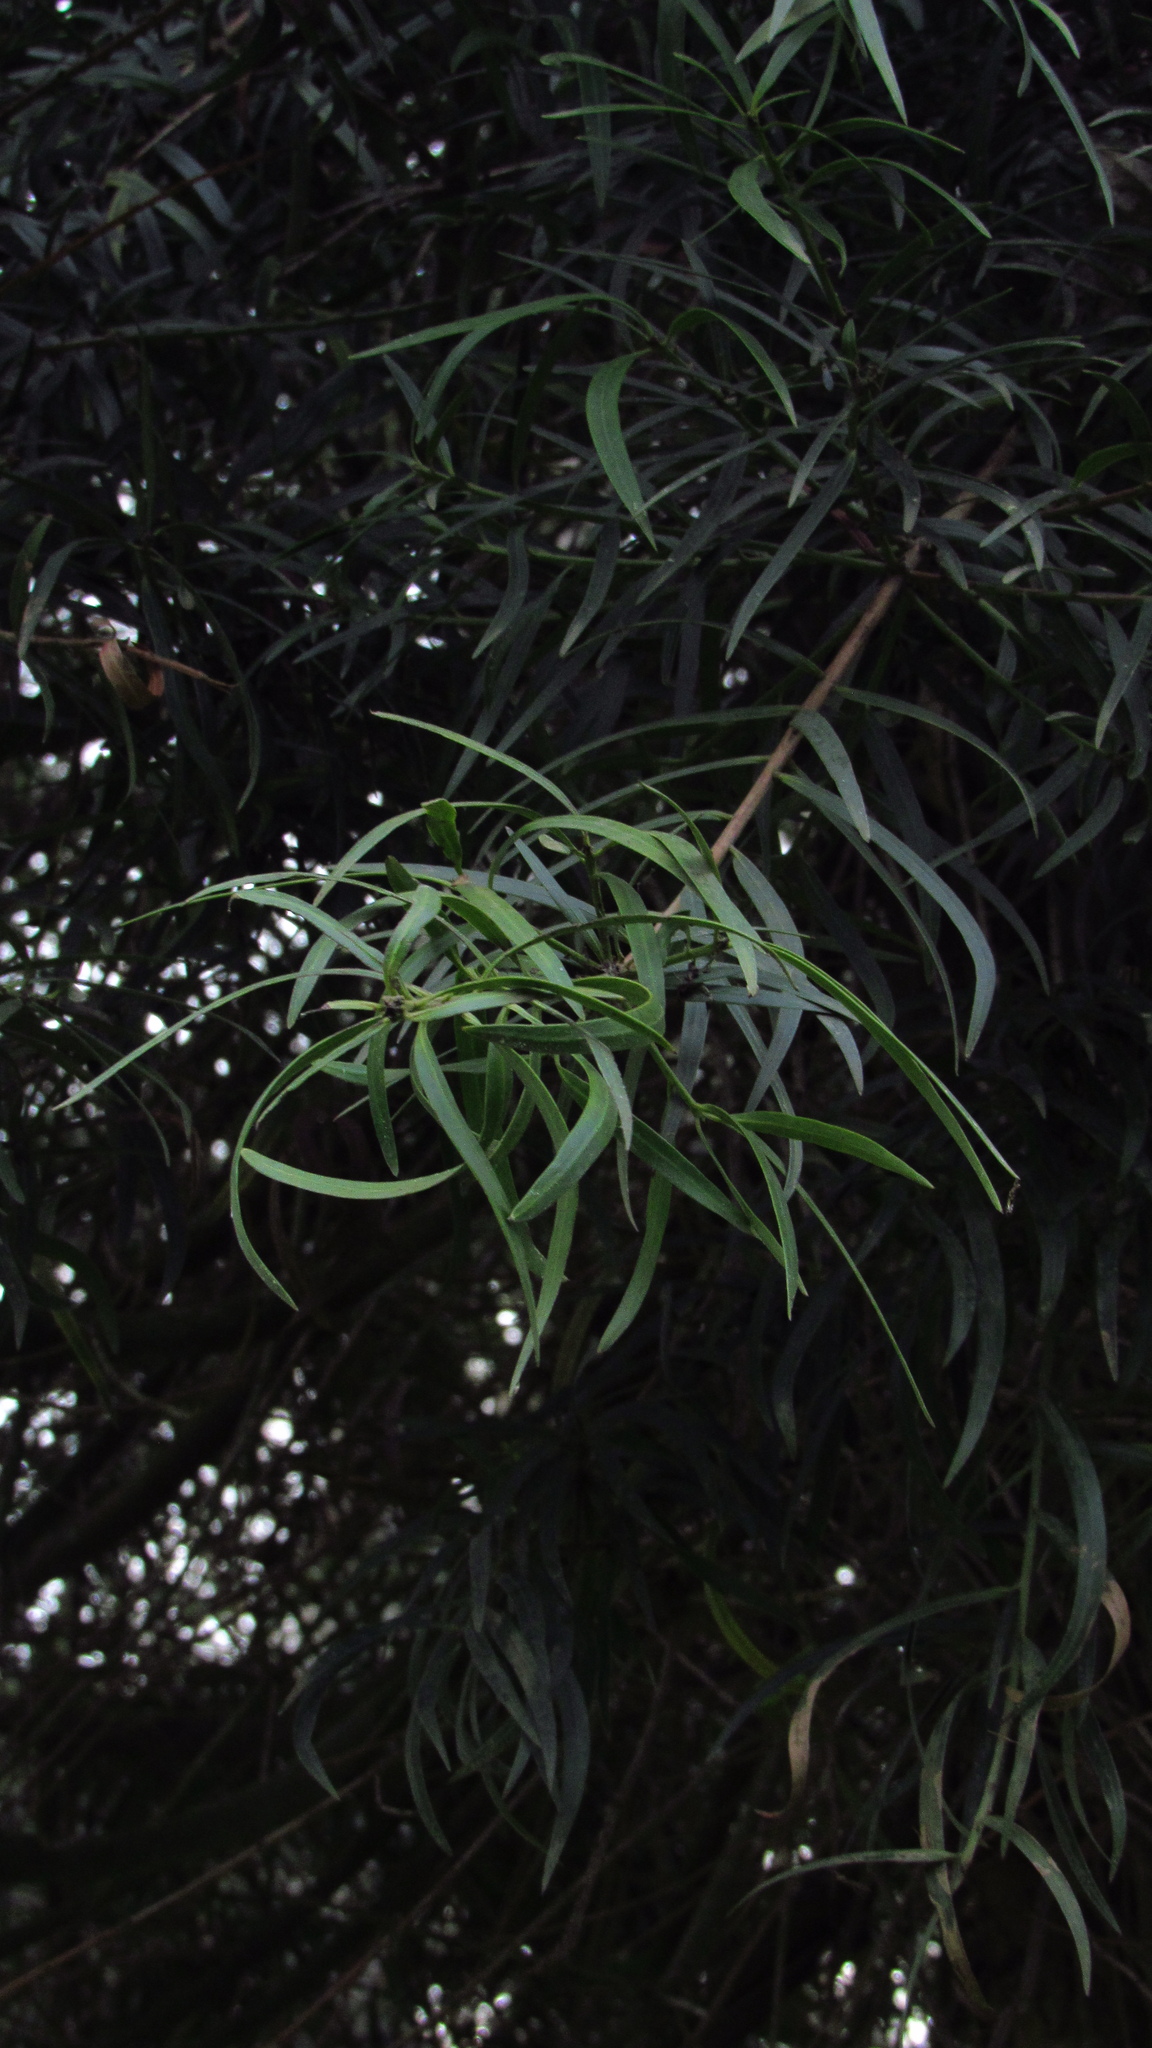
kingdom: Plantae
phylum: Tracheophyta
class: Pinopsida
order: Pinales
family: Podocarpaceae
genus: Podocarpus
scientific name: Podocarpus salignus
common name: Willow-leaf podocarp
